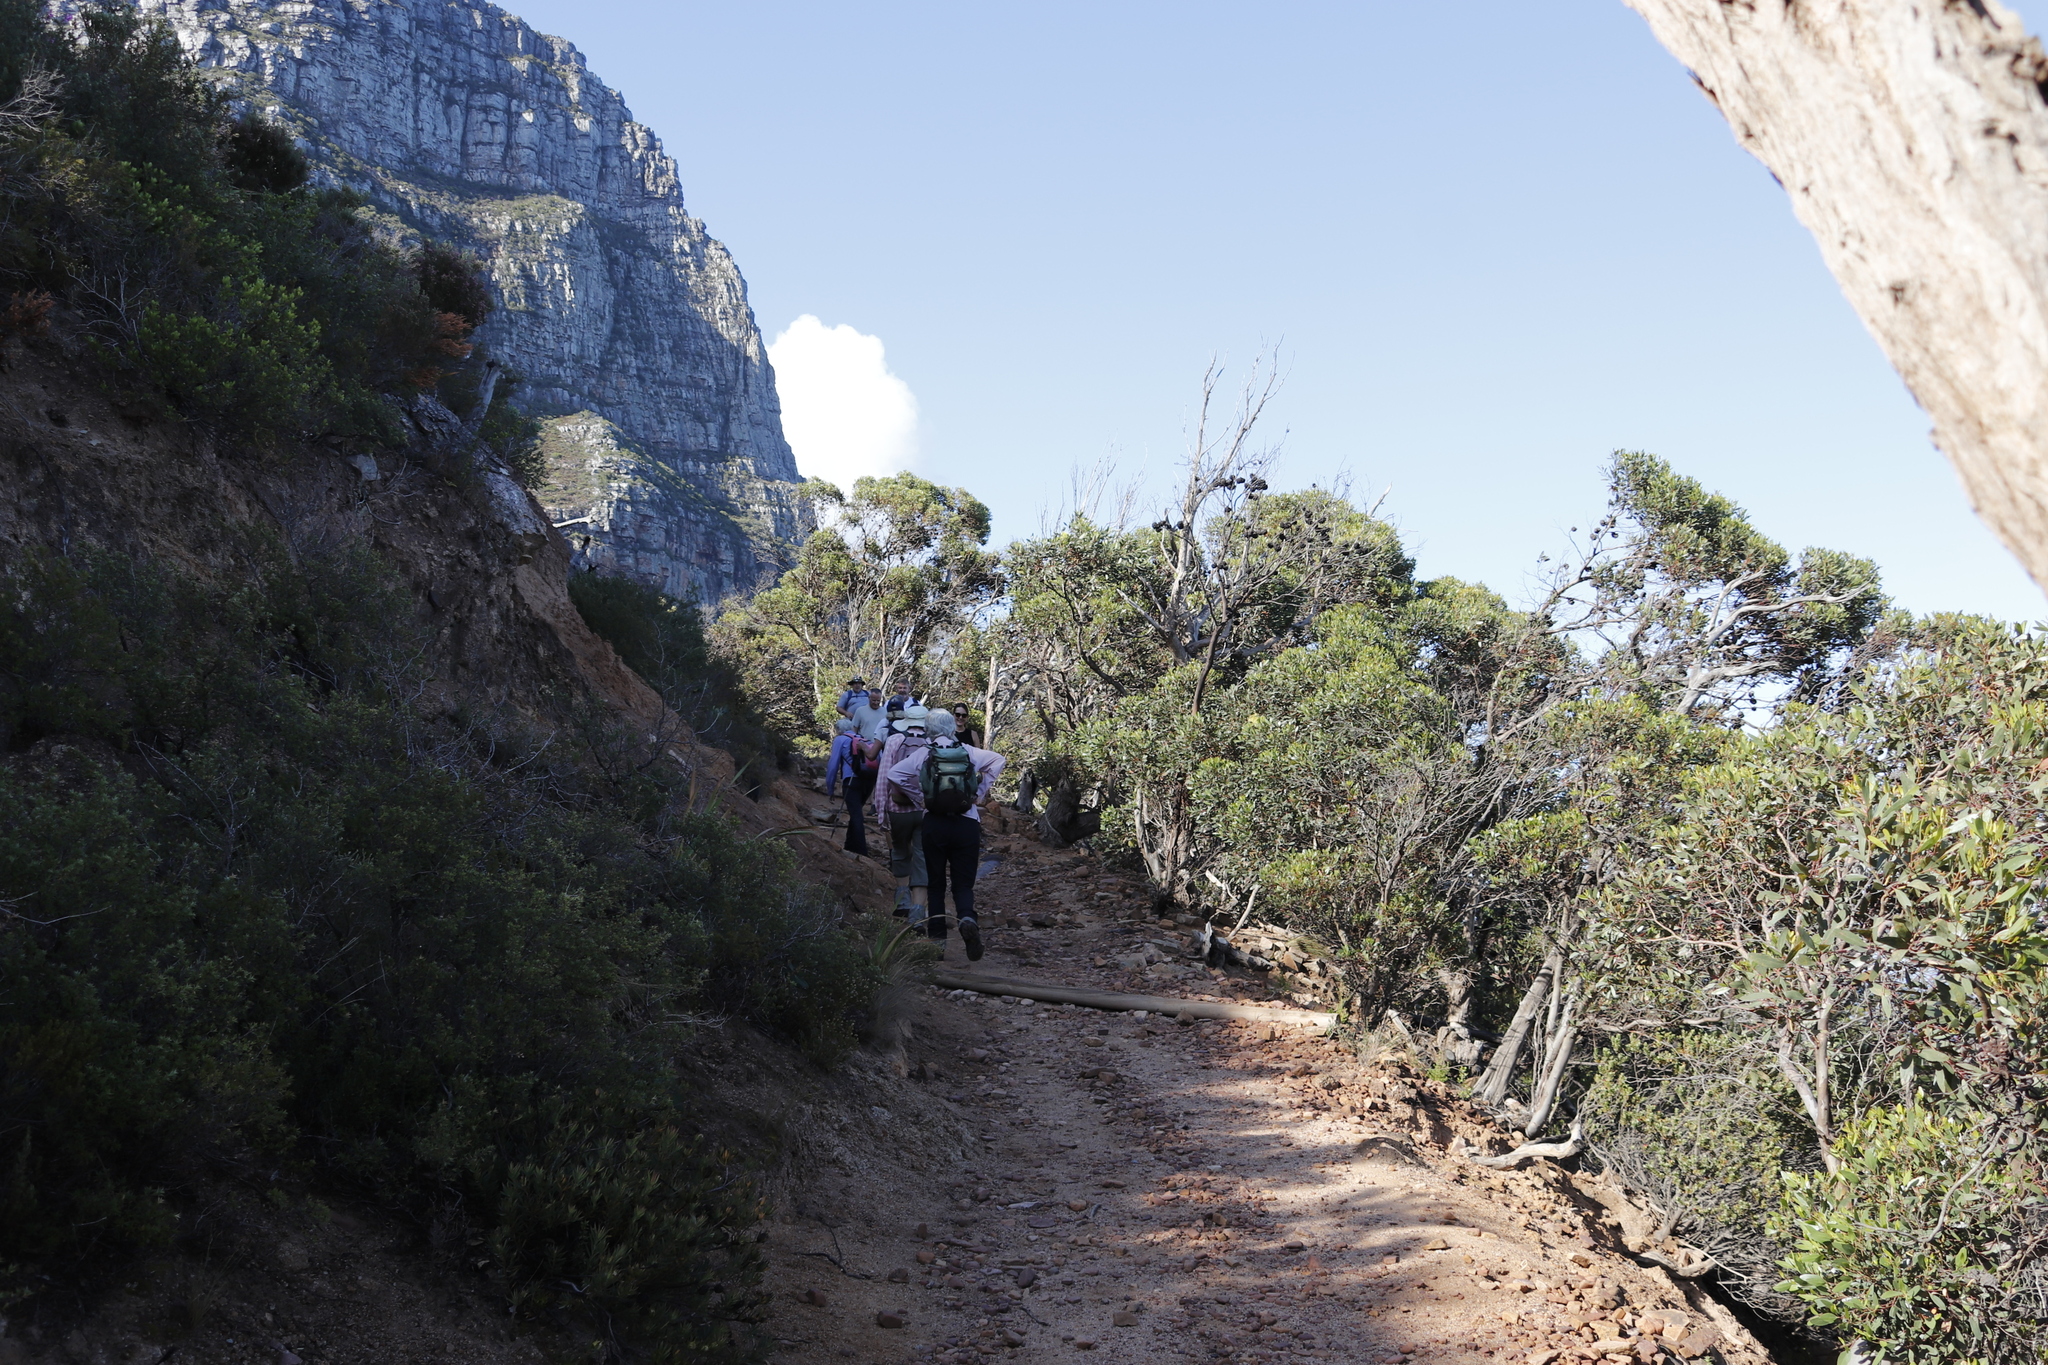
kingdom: Plantae
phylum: Tracheophyta
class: Magnoliopsida
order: Myrtales
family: Myrtaceae
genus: Eucalyptus
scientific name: Eucalyptus conferruminata
